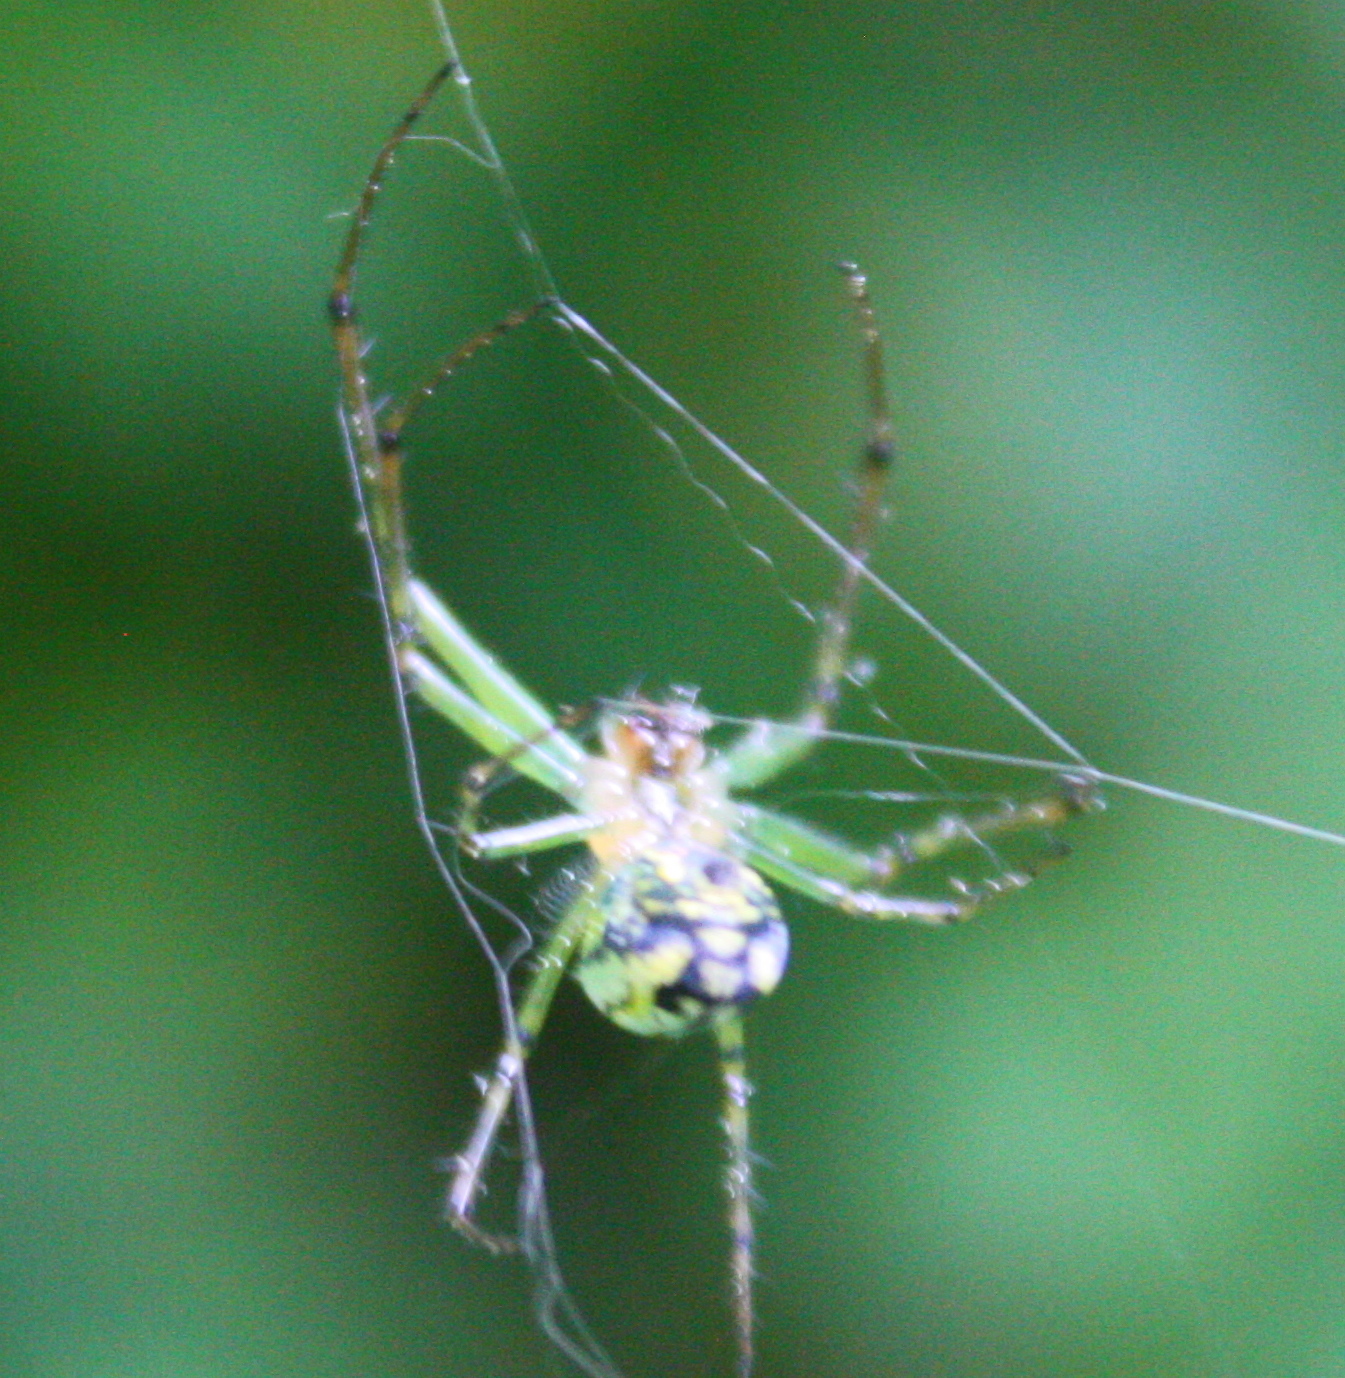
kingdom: Animalia
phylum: Arthropoda
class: Arachnida
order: Araneae
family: Tetragnathidae
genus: Leucauge
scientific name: Leucauge venusta
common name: Longjawed orb weavers
